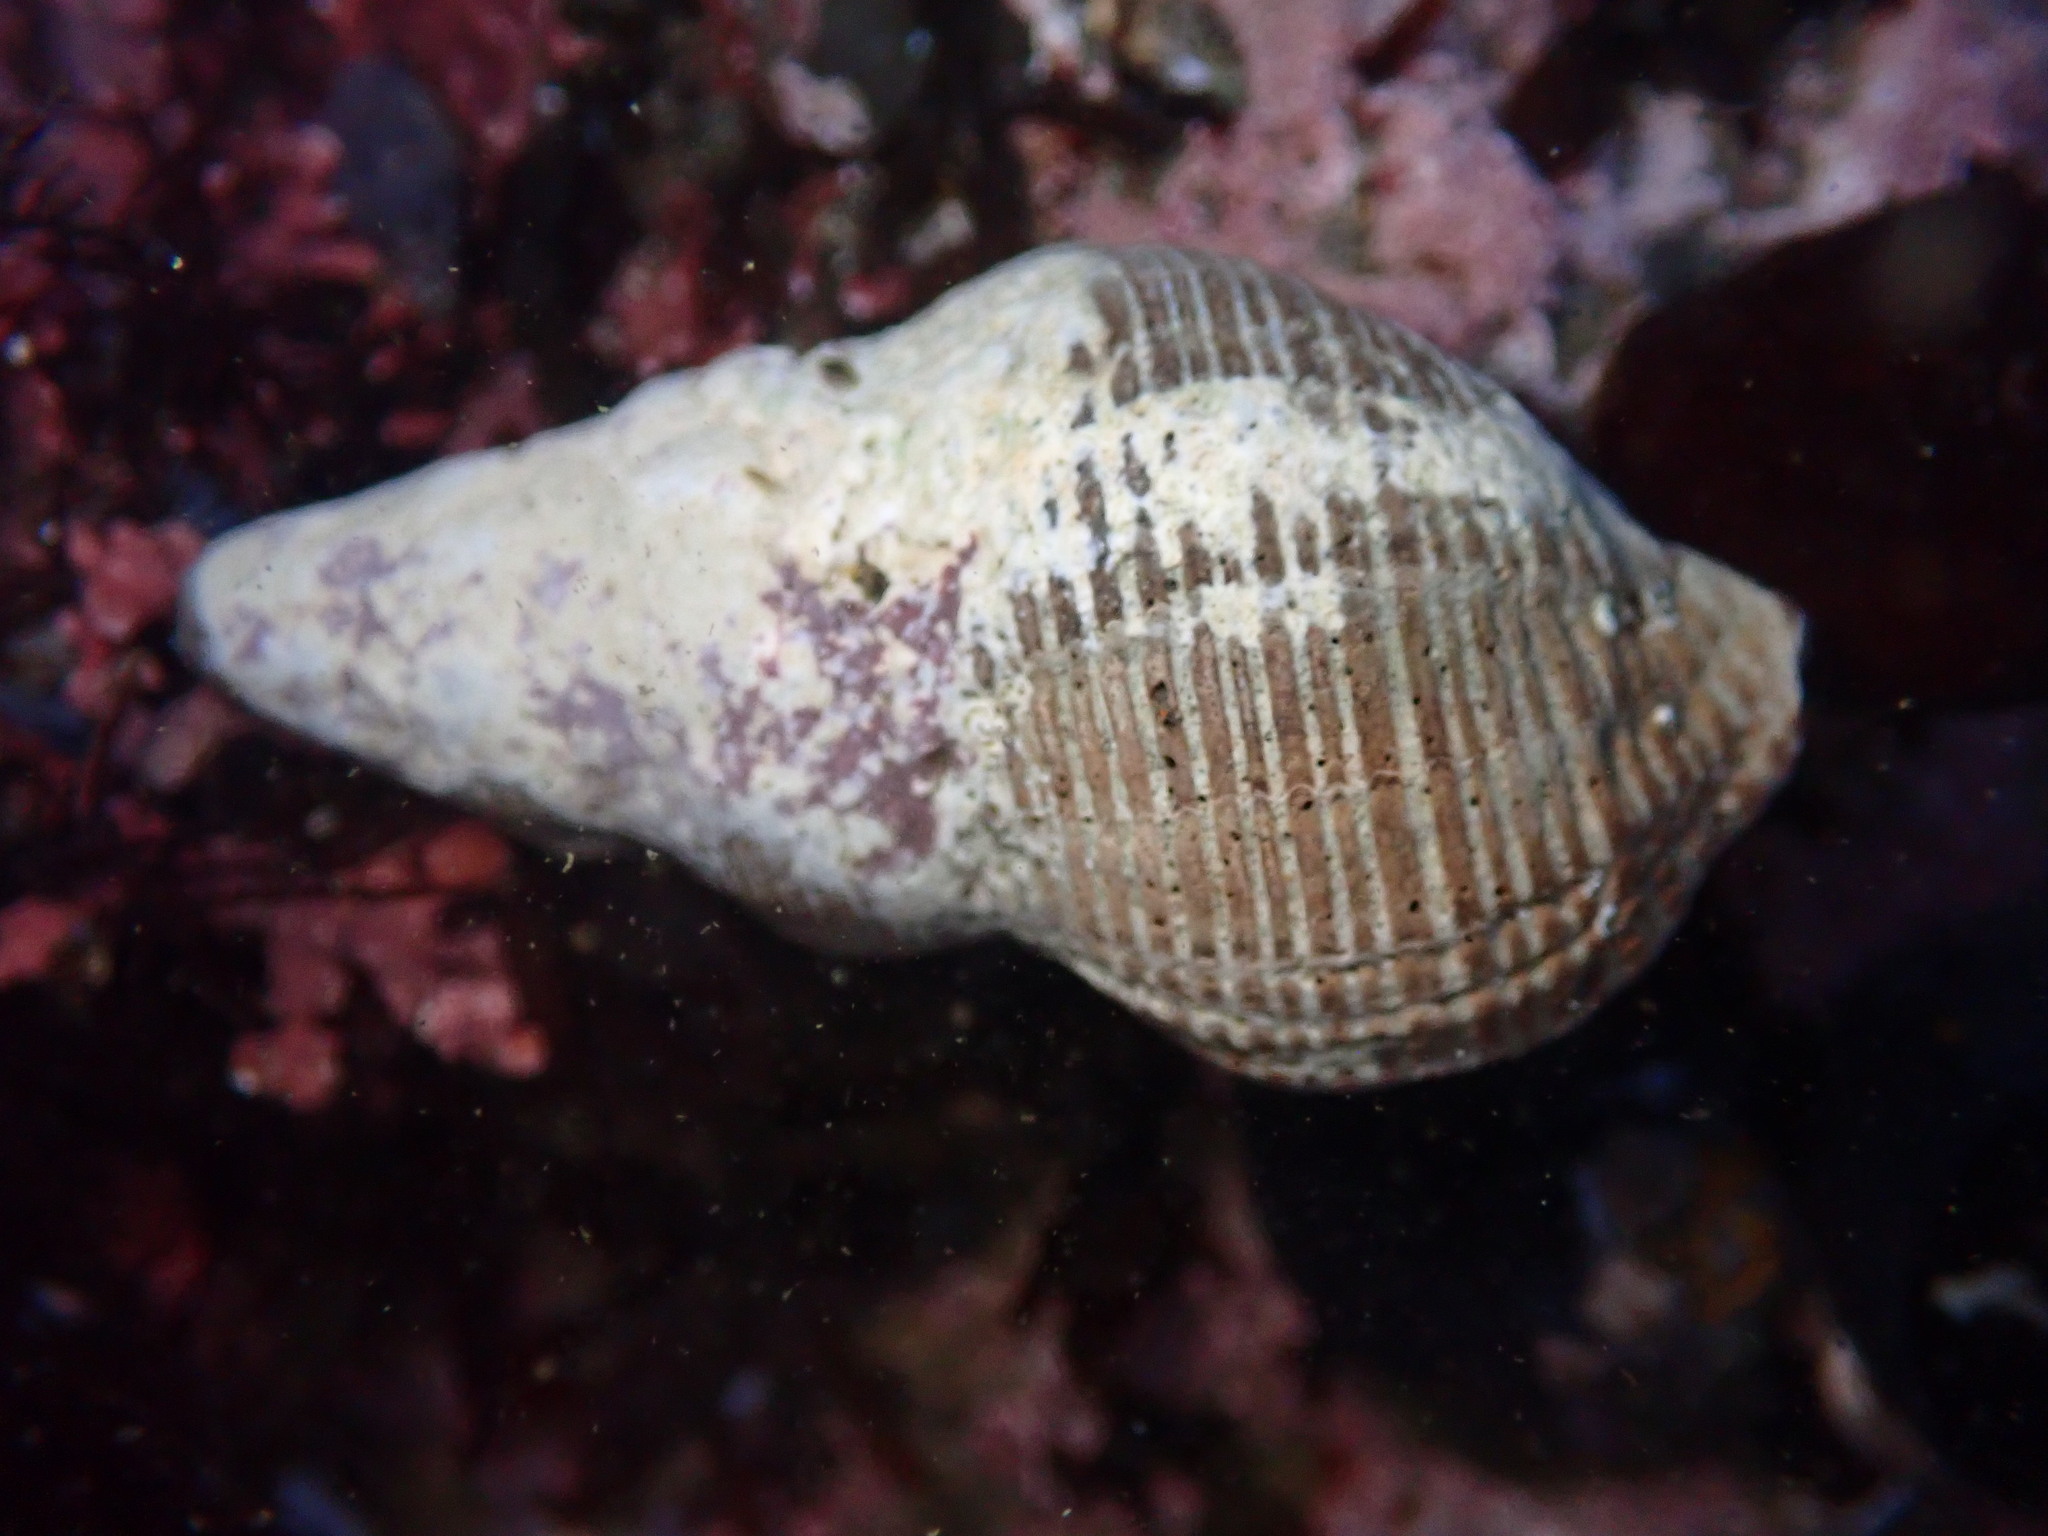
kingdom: Animalia
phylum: Mollusca
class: Gastropoda
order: Neogastropoda
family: Tudiclidae
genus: Lirabuccinum
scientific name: Lirabuccinum dirum
